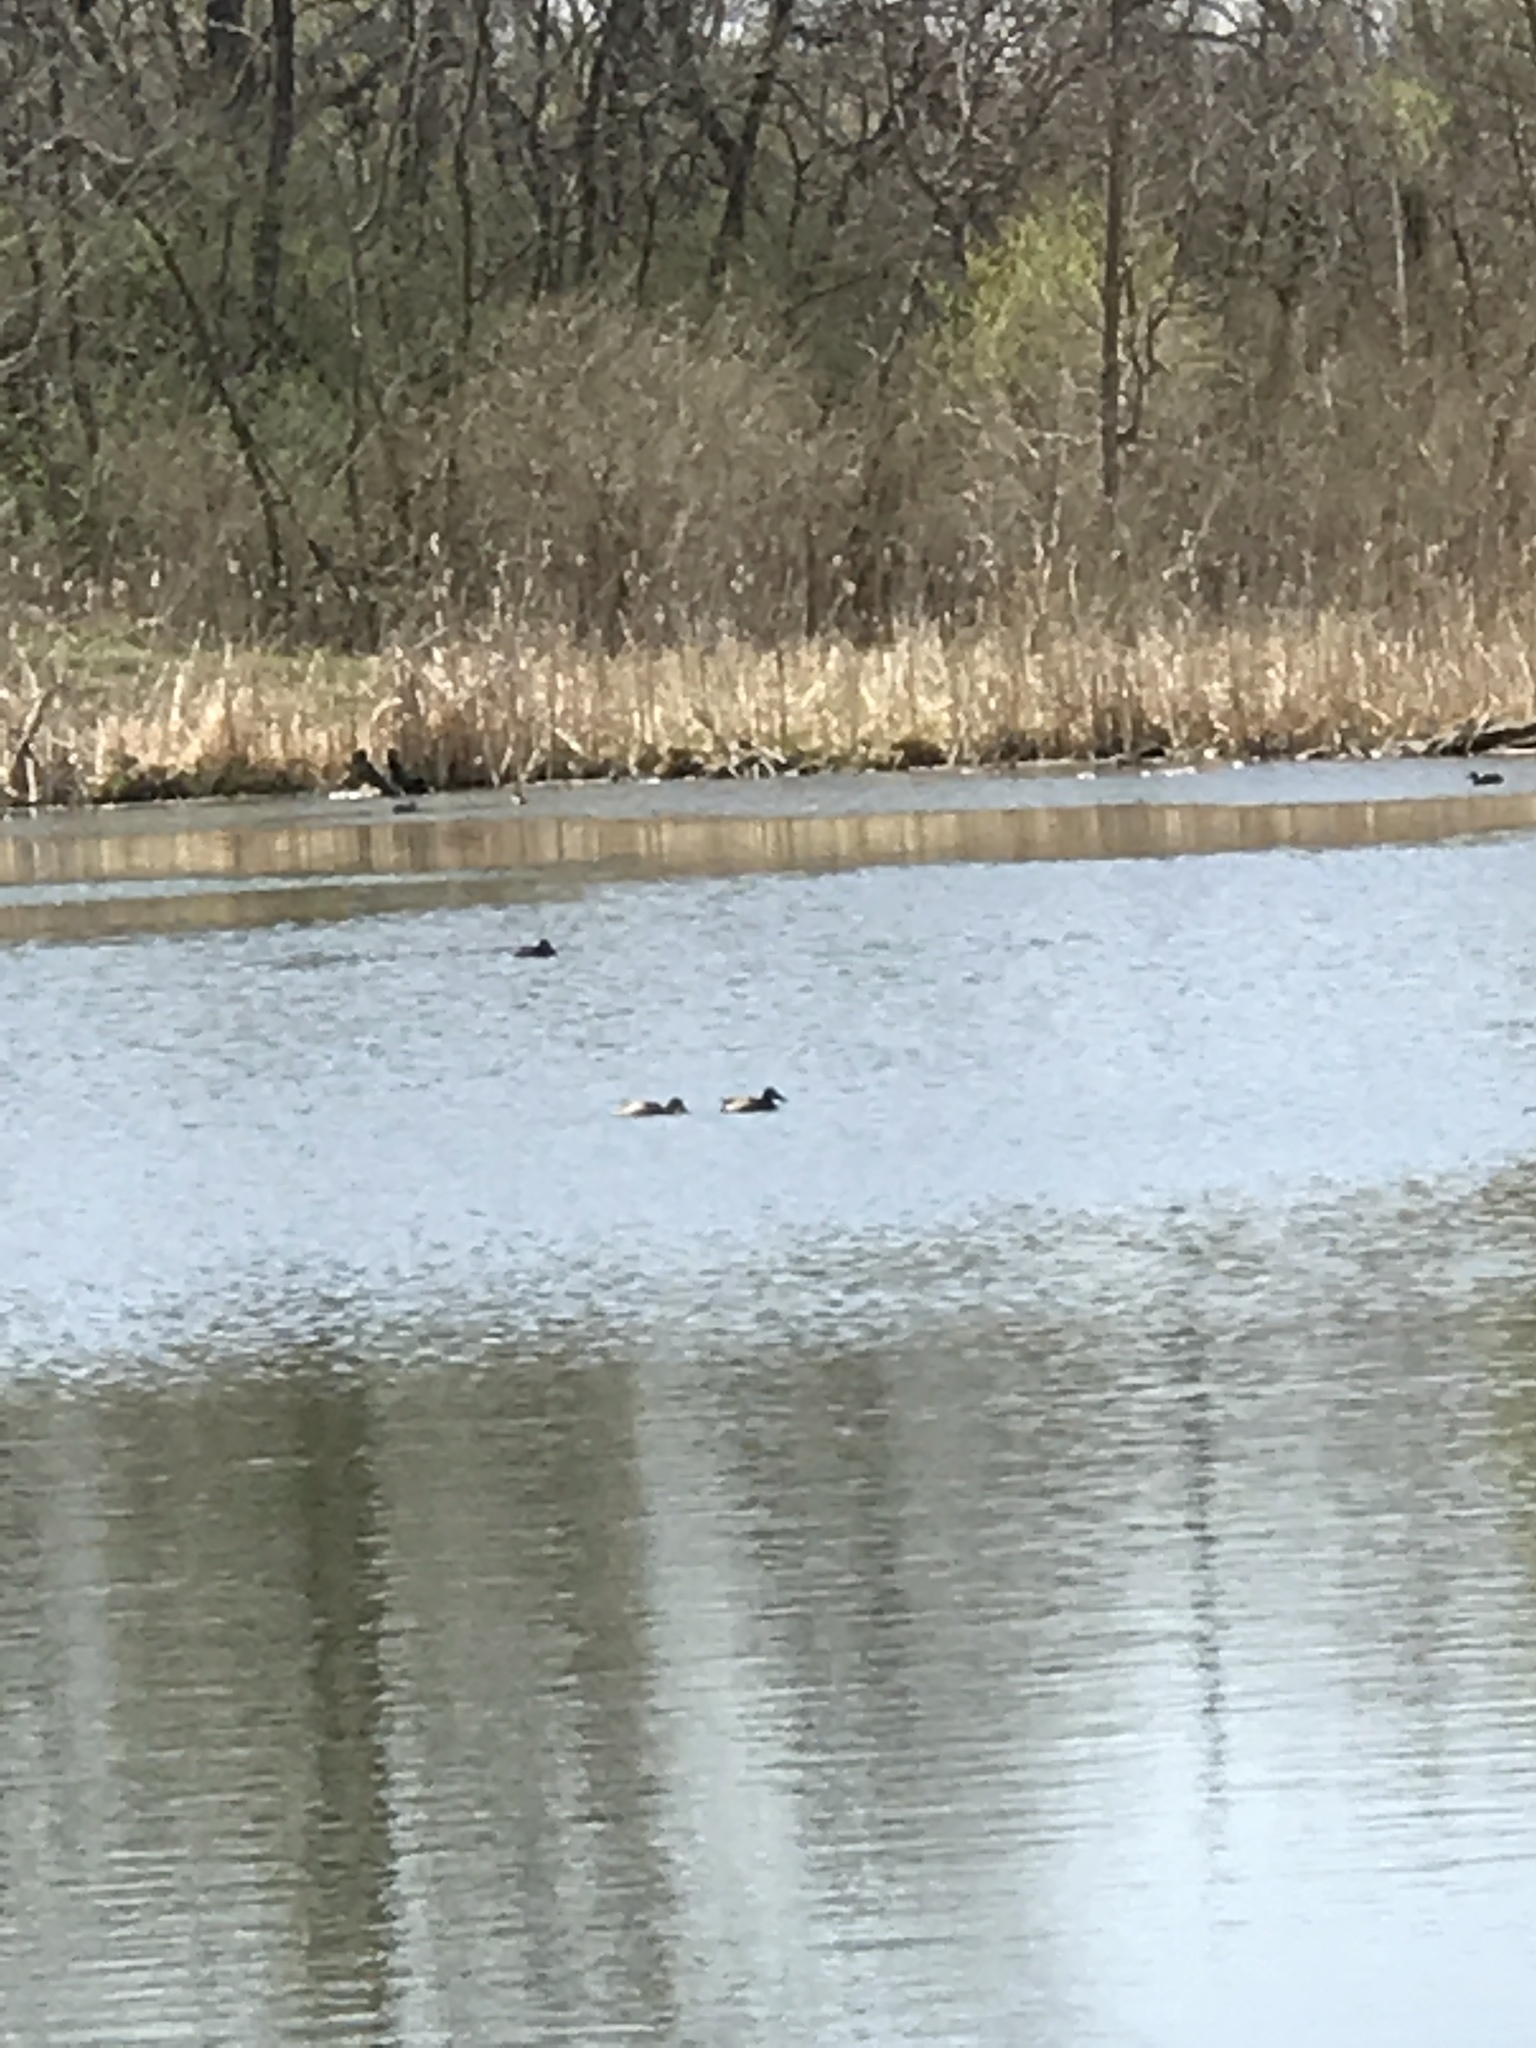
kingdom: Animalia
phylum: Chordata
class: Aves
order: Anseriformes
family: Anatidae
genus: Spatula
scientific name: Spatula clypeata
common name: Northern shoveler
